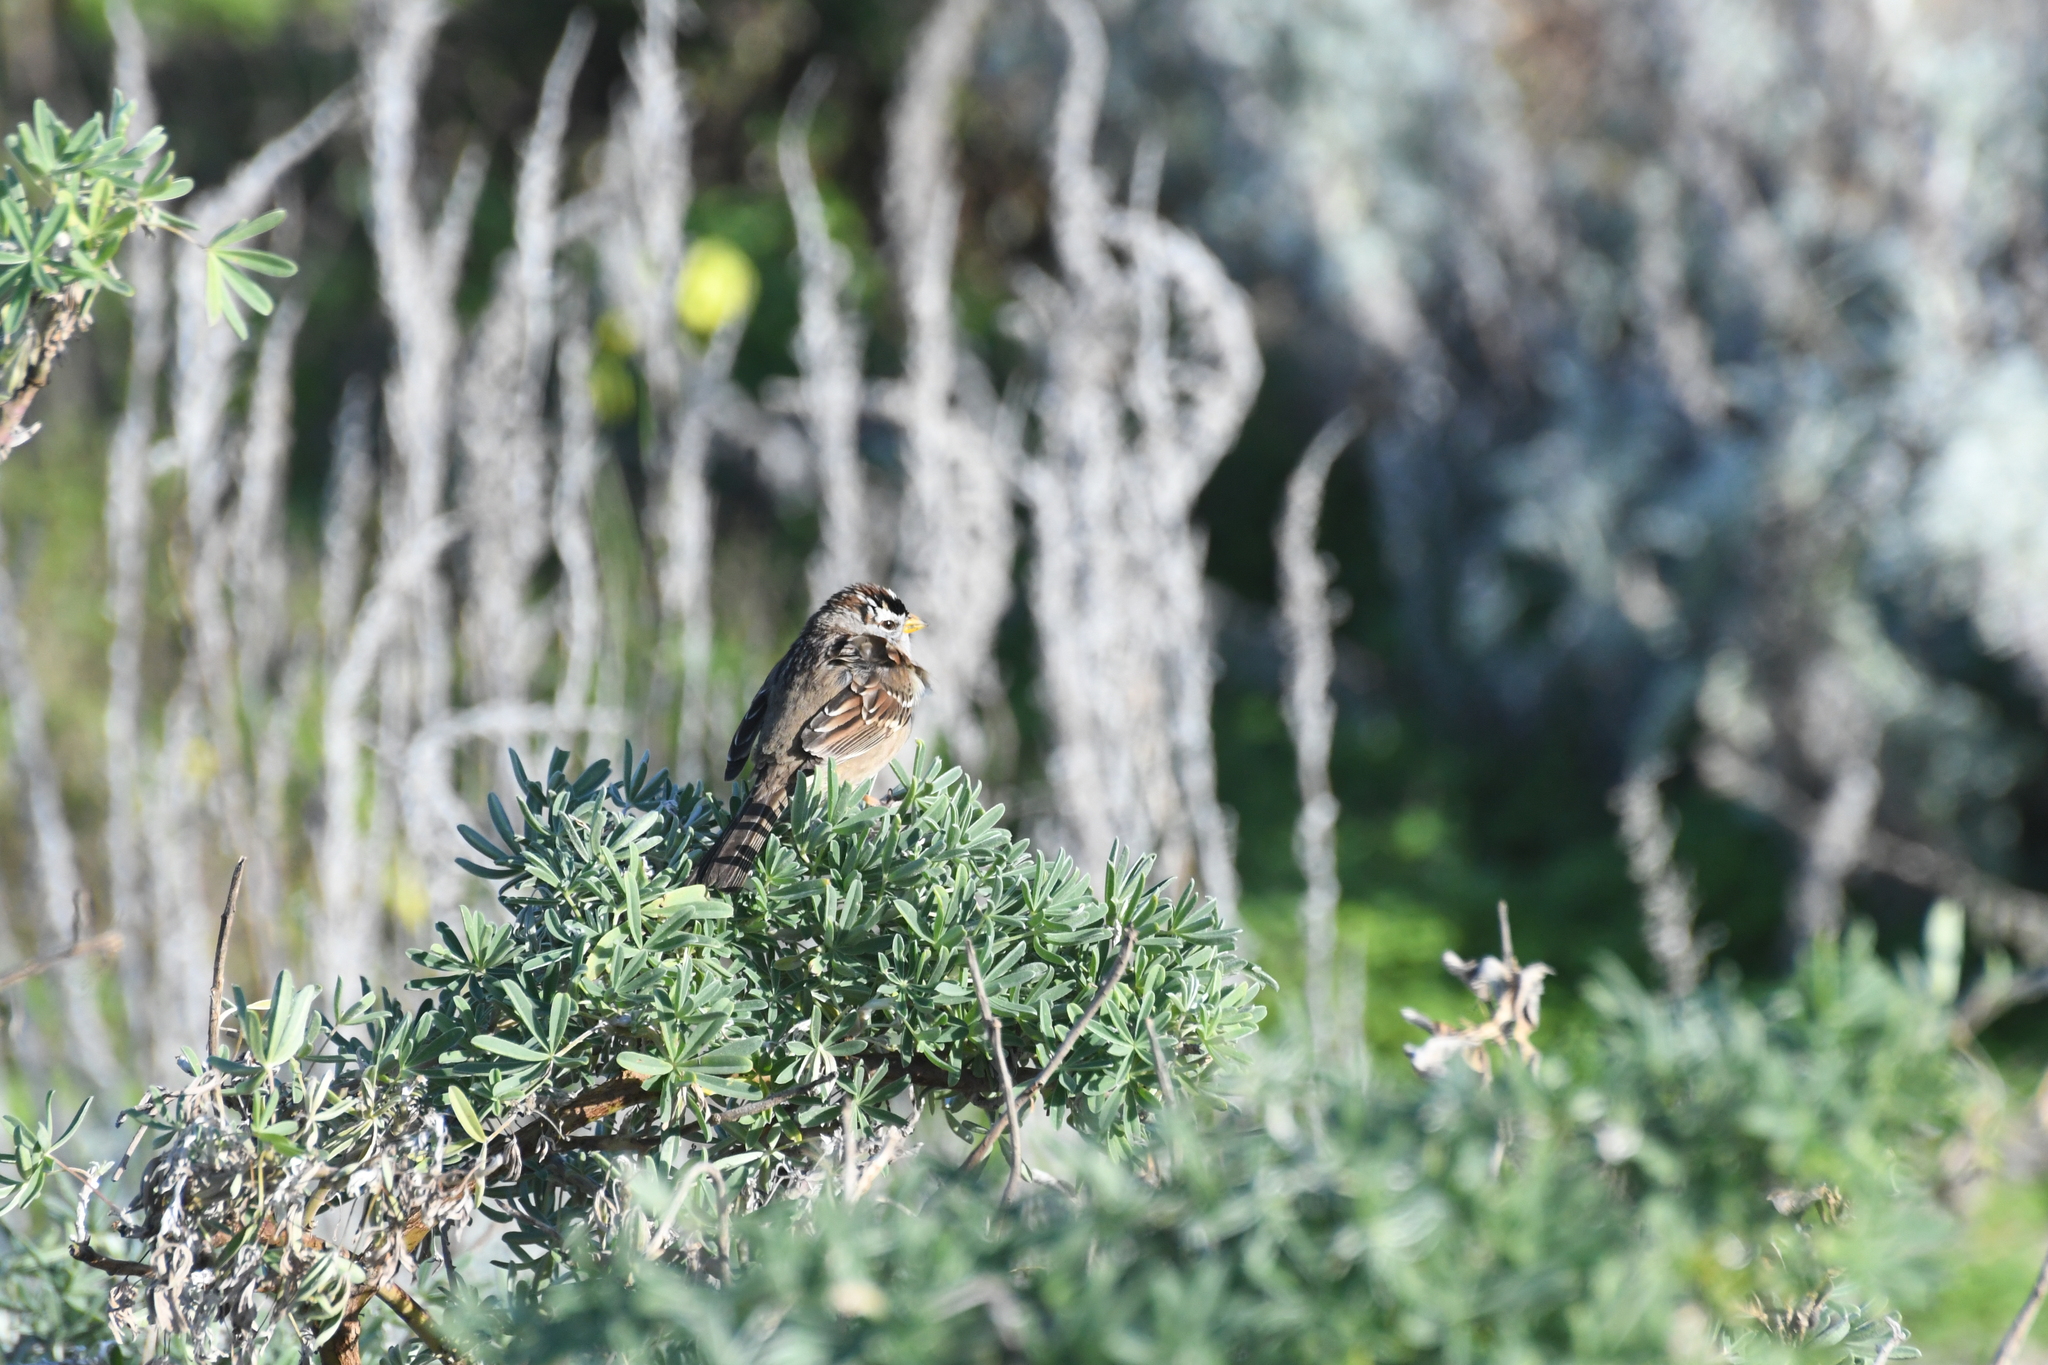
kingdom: Animalia
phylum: Chordata
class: Aves
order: Passeriformes
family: Passerellidae
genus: Zonotrichia
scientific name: Zonotrichia leucophrys
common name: White-crowned sparrow
